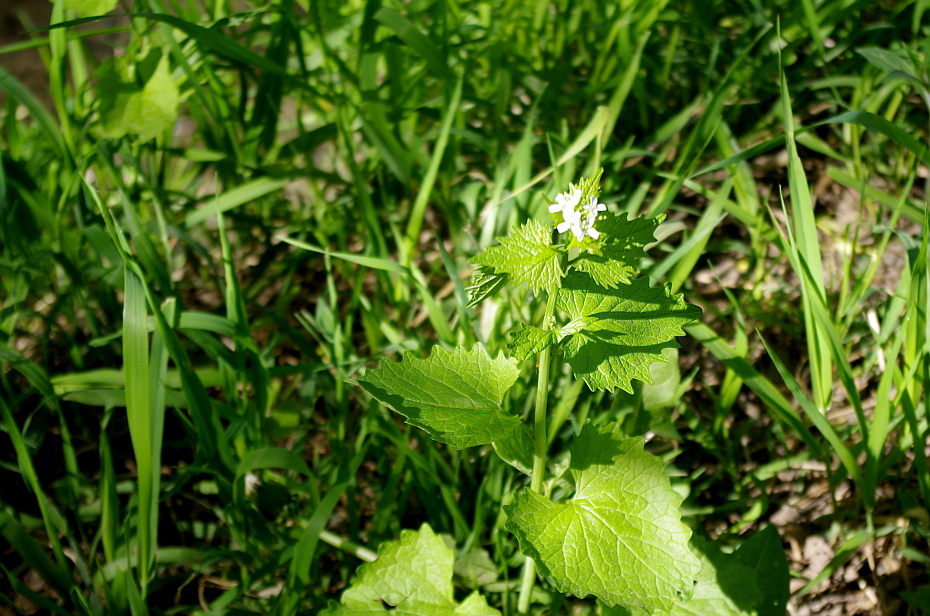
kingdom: Plantae
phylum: Tracheophyta
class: Magnoliopsida
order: Brassicales
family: Brassicaceae
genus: Alliaria
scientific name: Alliaria petiolata
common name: Garlic mustard
